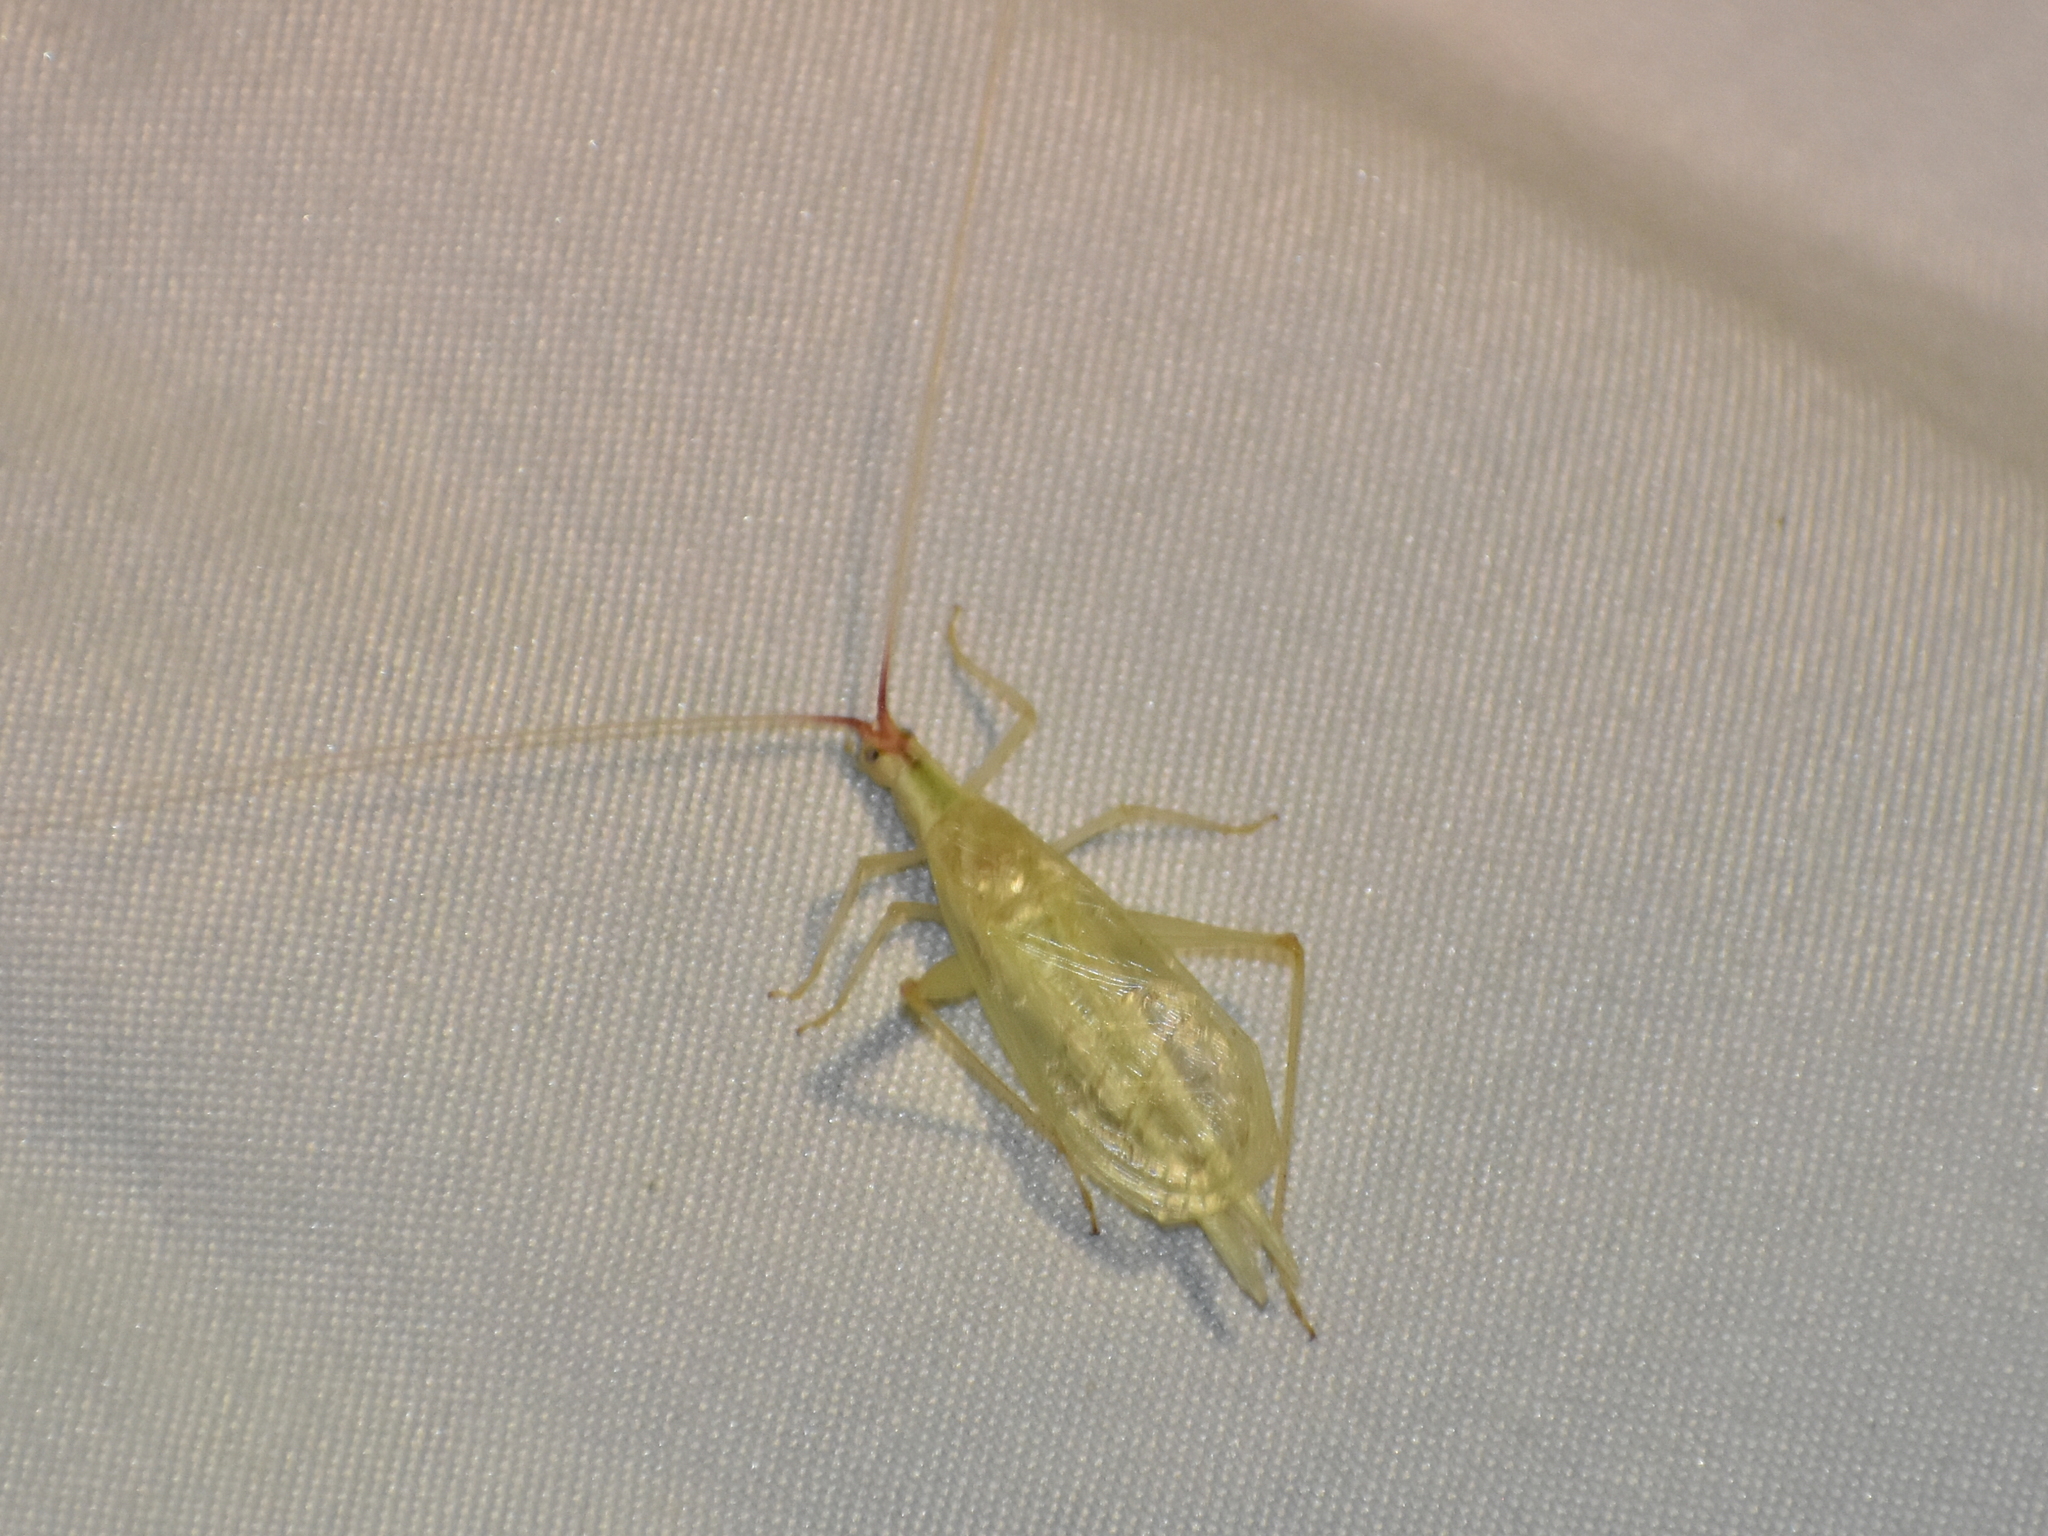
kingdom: Animalia
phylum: Arthropoda
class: Insecta
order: Orthoptera
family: Gryllidae
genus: Oecanthus
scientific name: Oecanthus latipennis
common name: Broad-winged tree cricket
